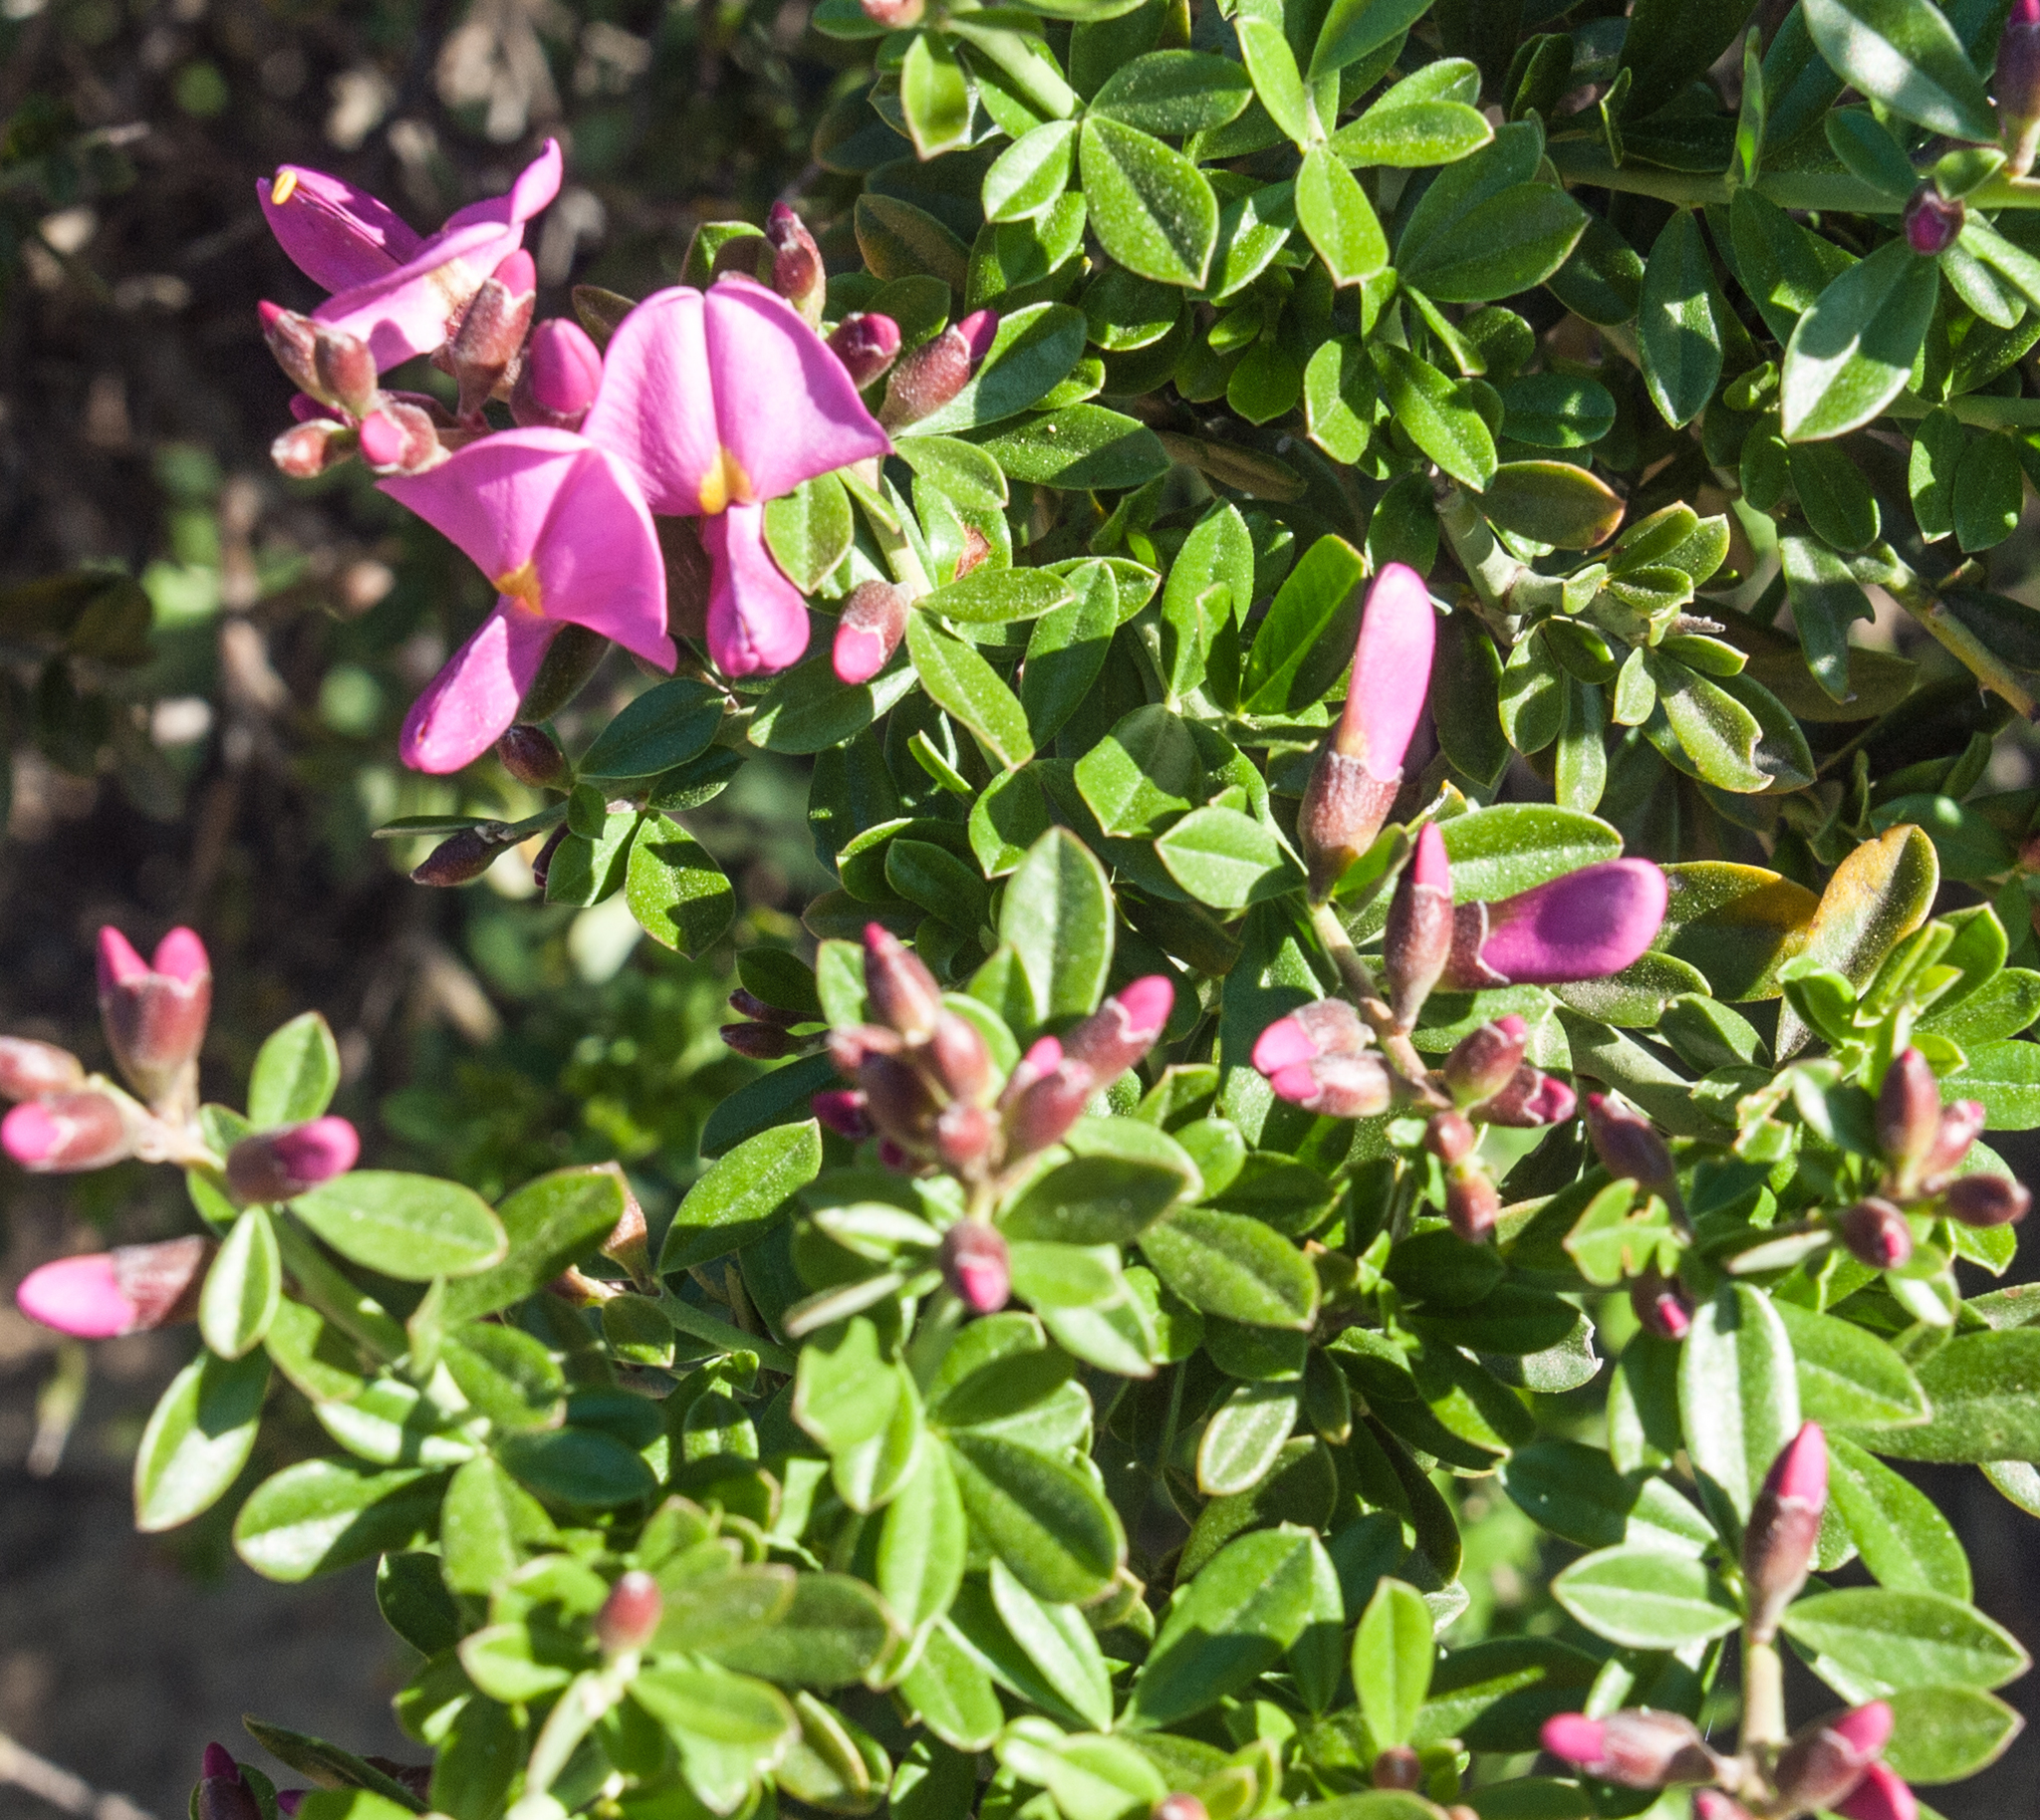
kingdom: Plantae
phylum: Tracheophyta
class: Magnoliopsida
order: Fabales
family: Fabaceae
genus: Pickeringia
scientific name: Pickeringia montana
